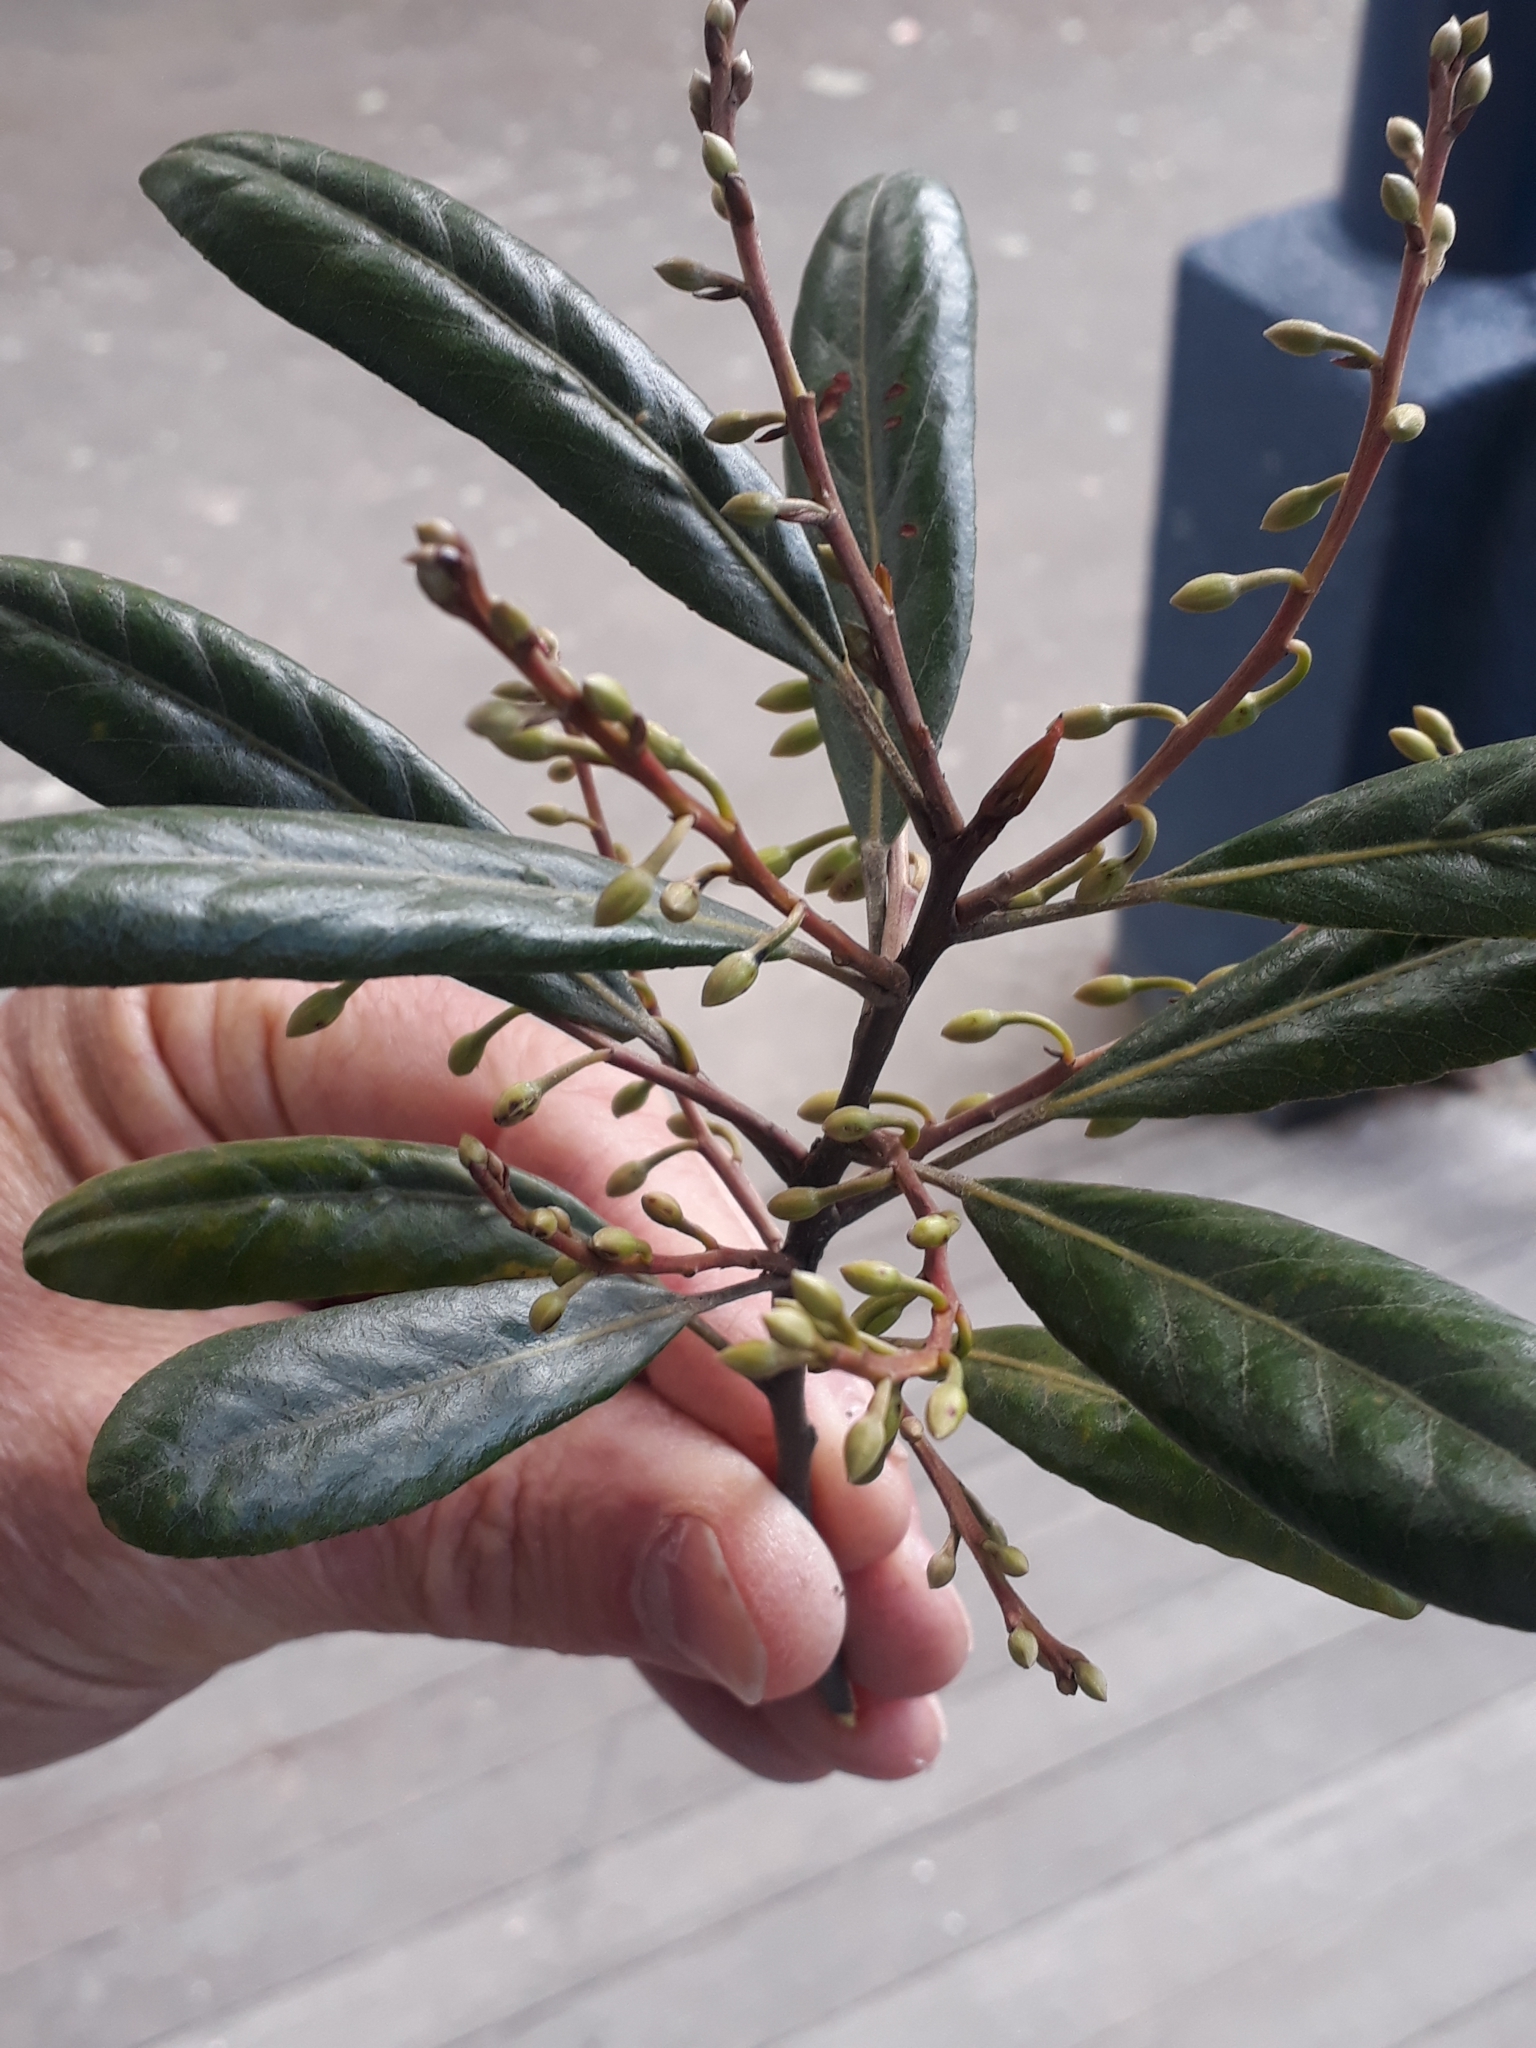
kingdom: Plantae
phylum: Tracheophyta
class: Magnoliopsida
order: Oxalidales
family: Elaeocarpaceae
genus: Elaeocarpus
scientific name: Elaeocarpus dentatus
